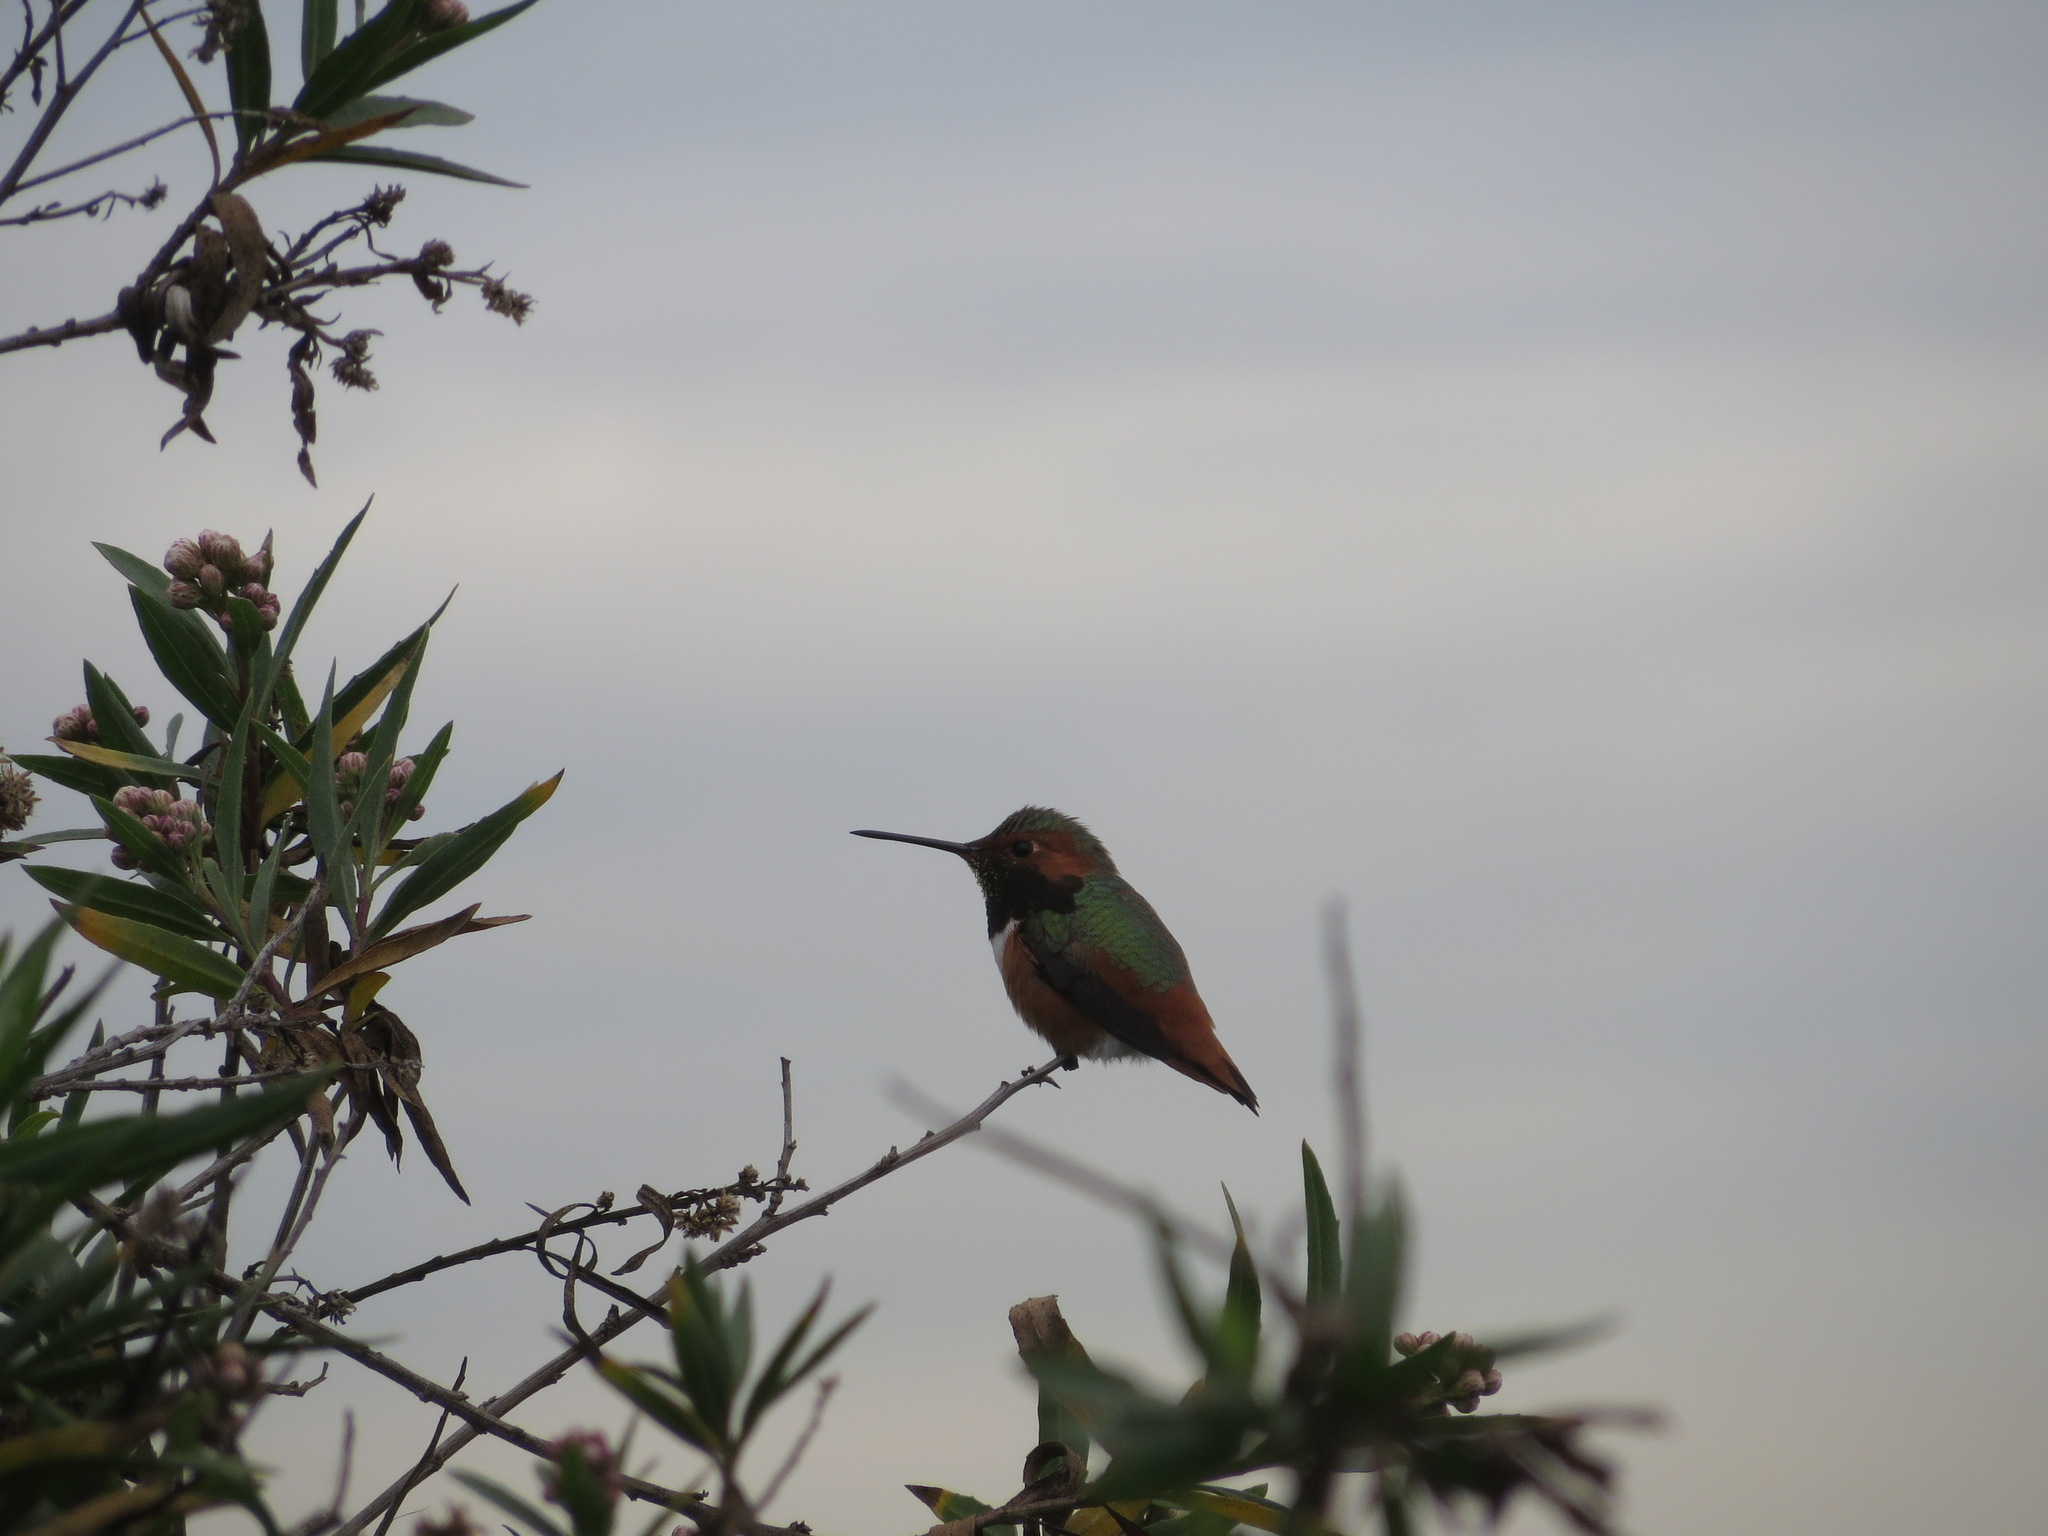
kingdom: Animalia
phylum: Chordata
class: Aves
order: Apodiformes
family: Trochilidae
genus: Selasphorus
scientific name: Selasphorus sasin
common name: Allen's hummingbird
